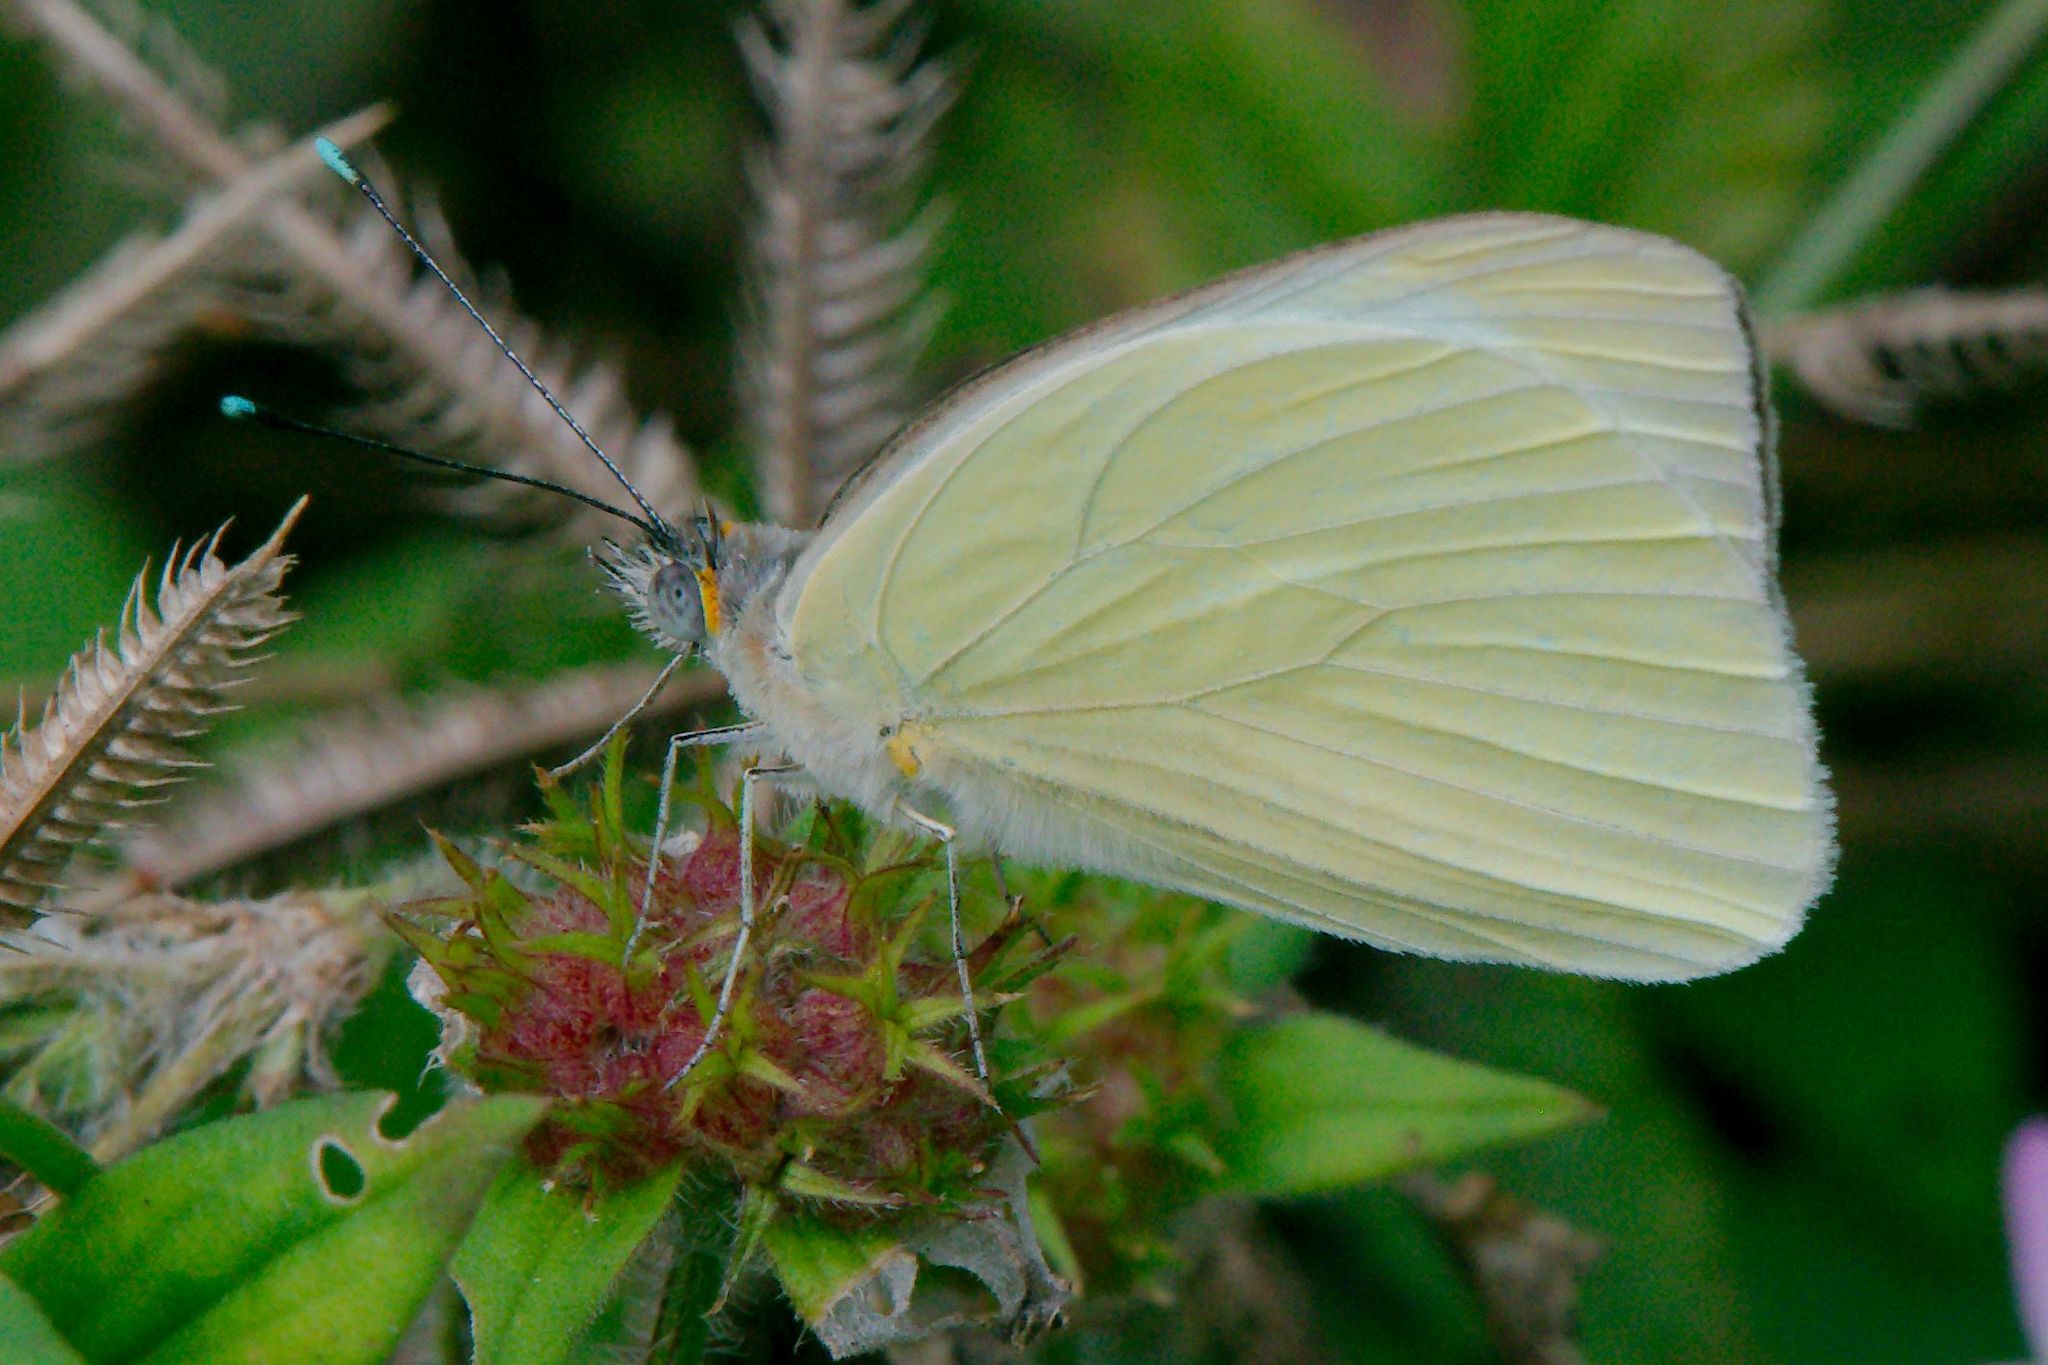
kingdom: Animalia
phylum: Arthropoda
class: Insecta
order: Lepidoptera
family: Pieridae
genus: Ascia
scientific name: Ascia monuste
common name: Great southern white
